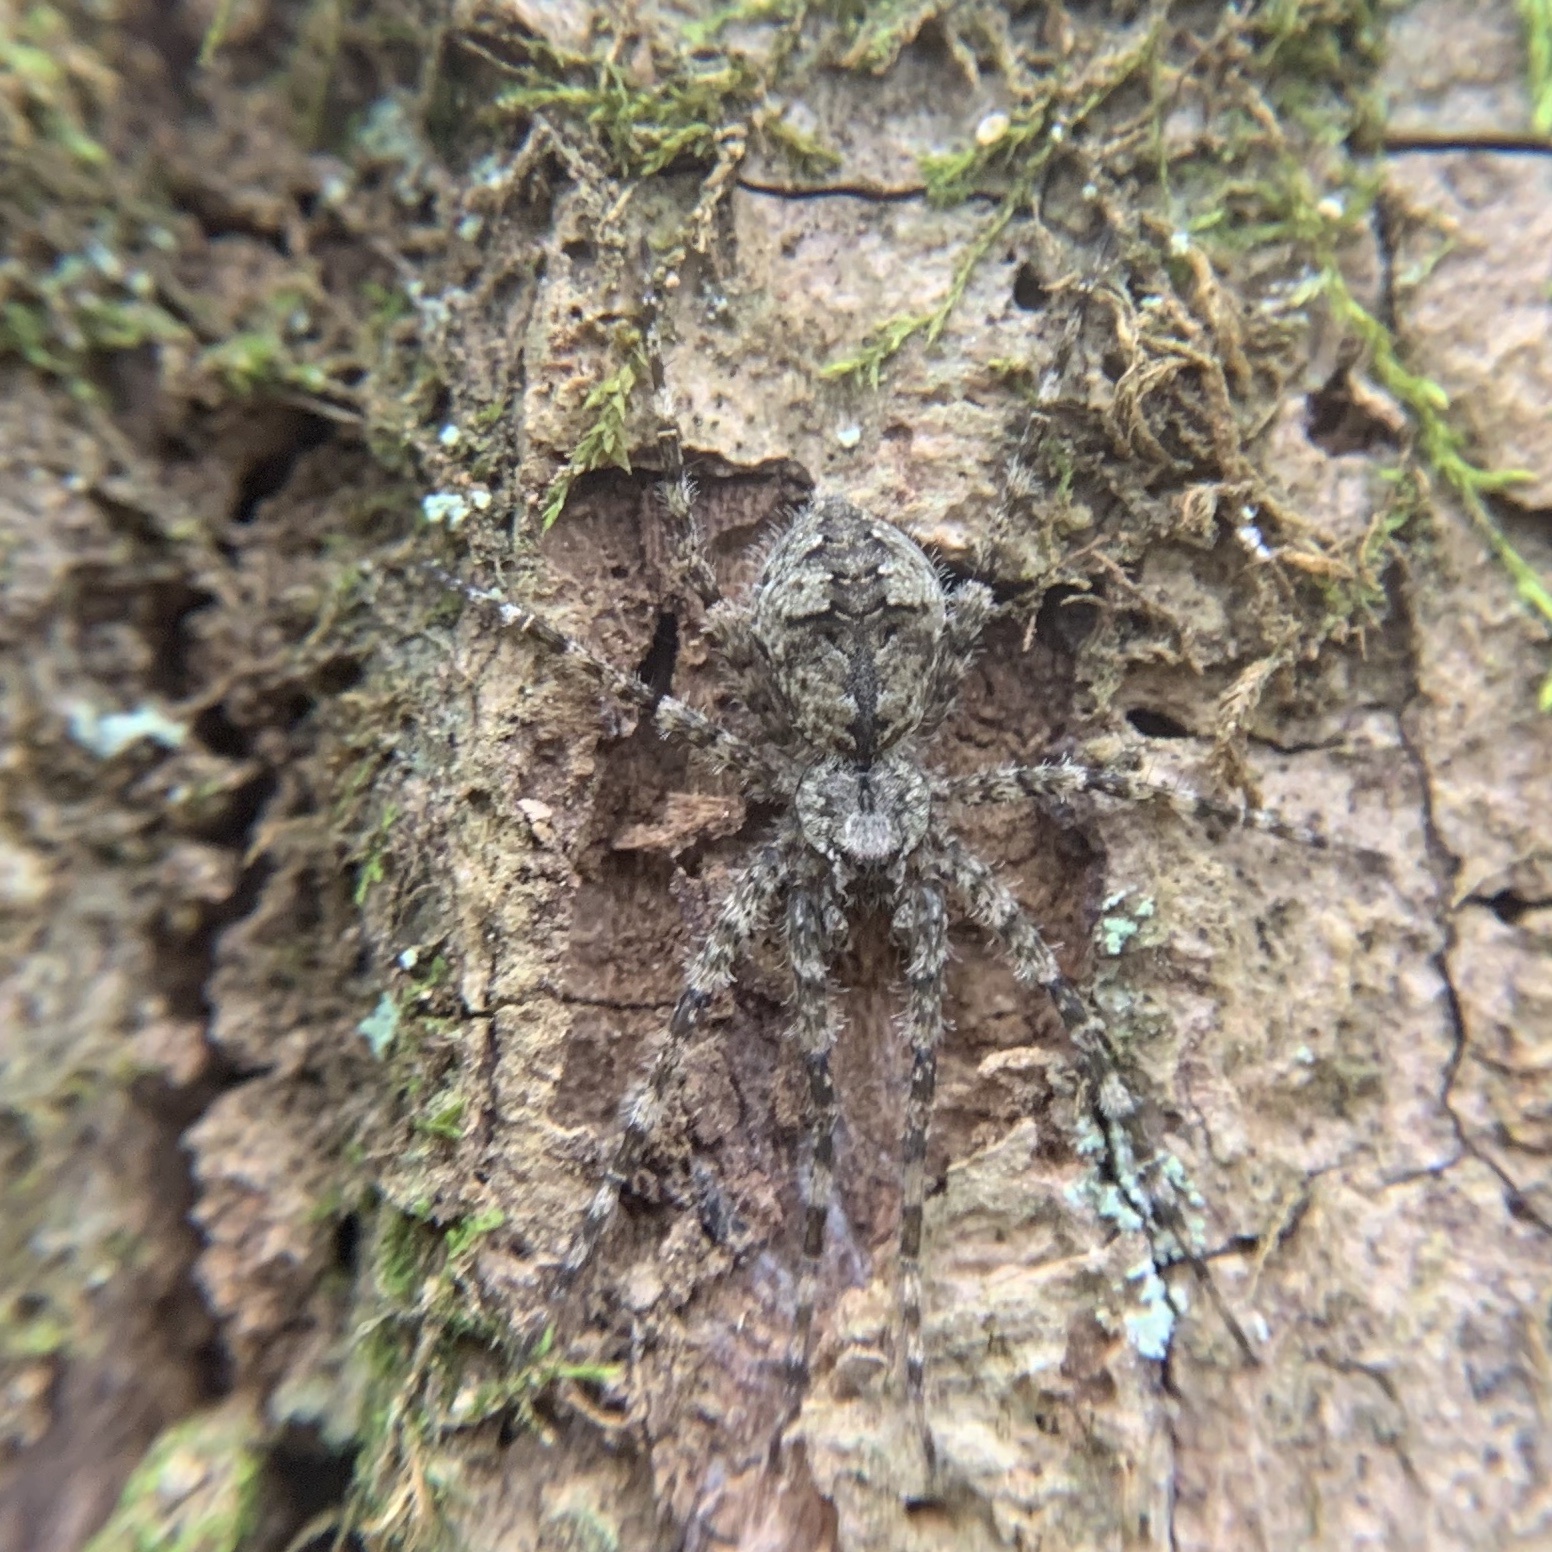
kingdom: Animalia
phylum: Arthropoda
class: Arachnida
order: Araneae
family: Pisauridae
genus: Dolomedes
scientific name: Dolomedes albineus
